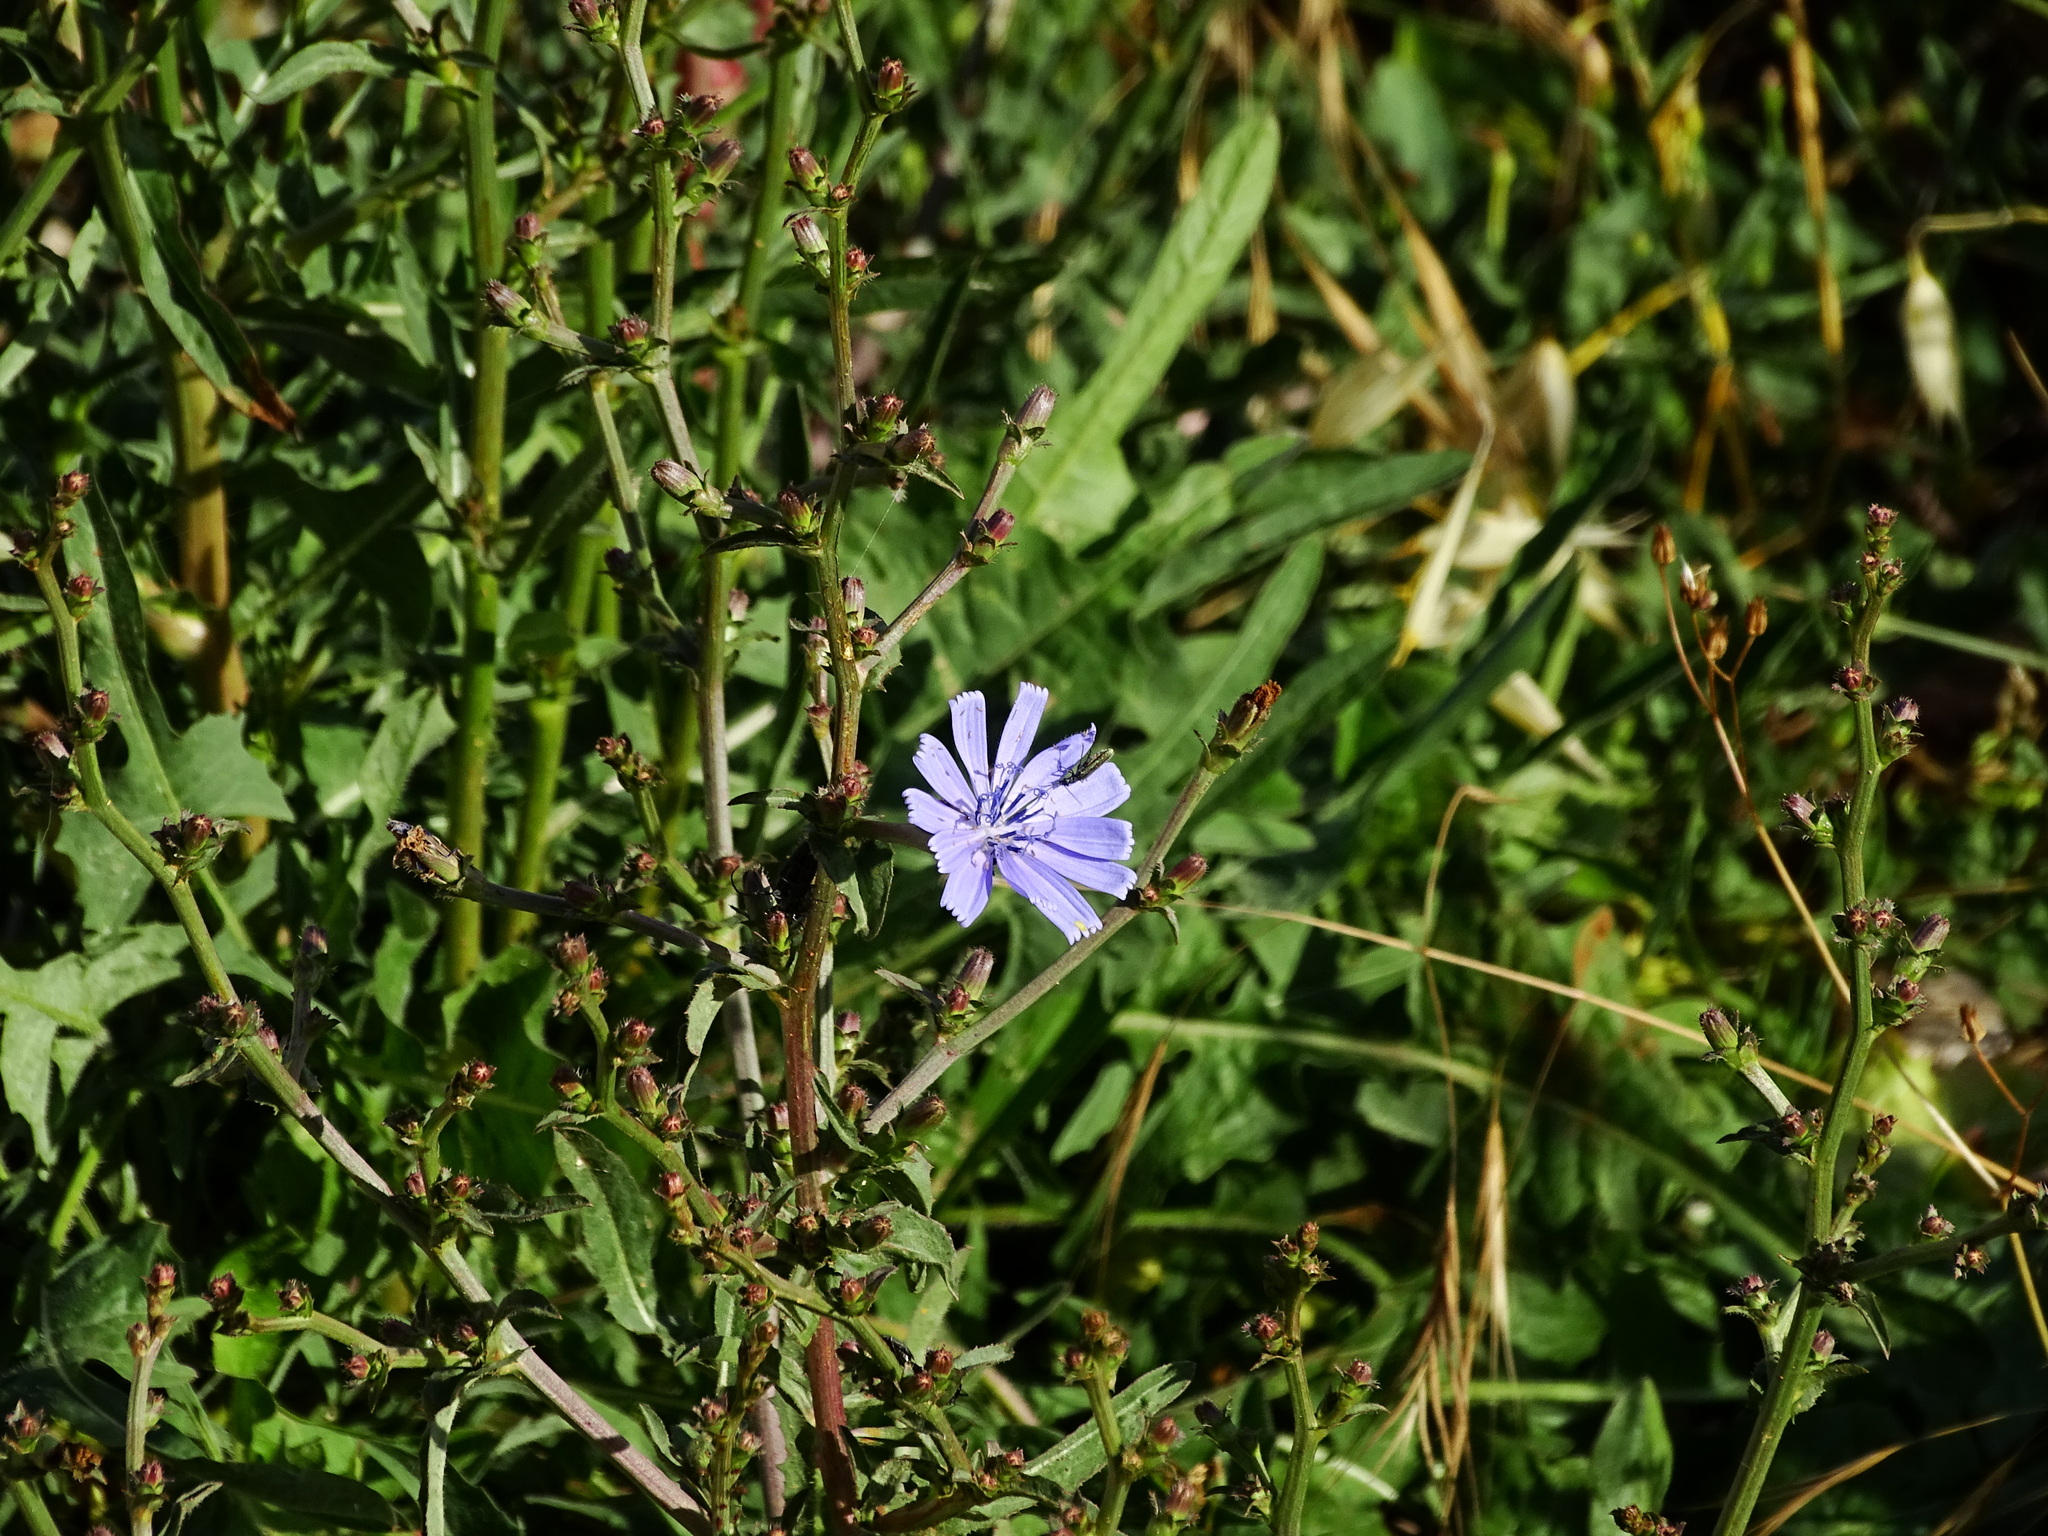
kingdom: Plantae
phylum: Tracheophyta
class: Magnoliopsida
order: Asterales
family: Asteraceae
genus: Cichorium
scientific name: Cichorium intybus
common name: Chicory
